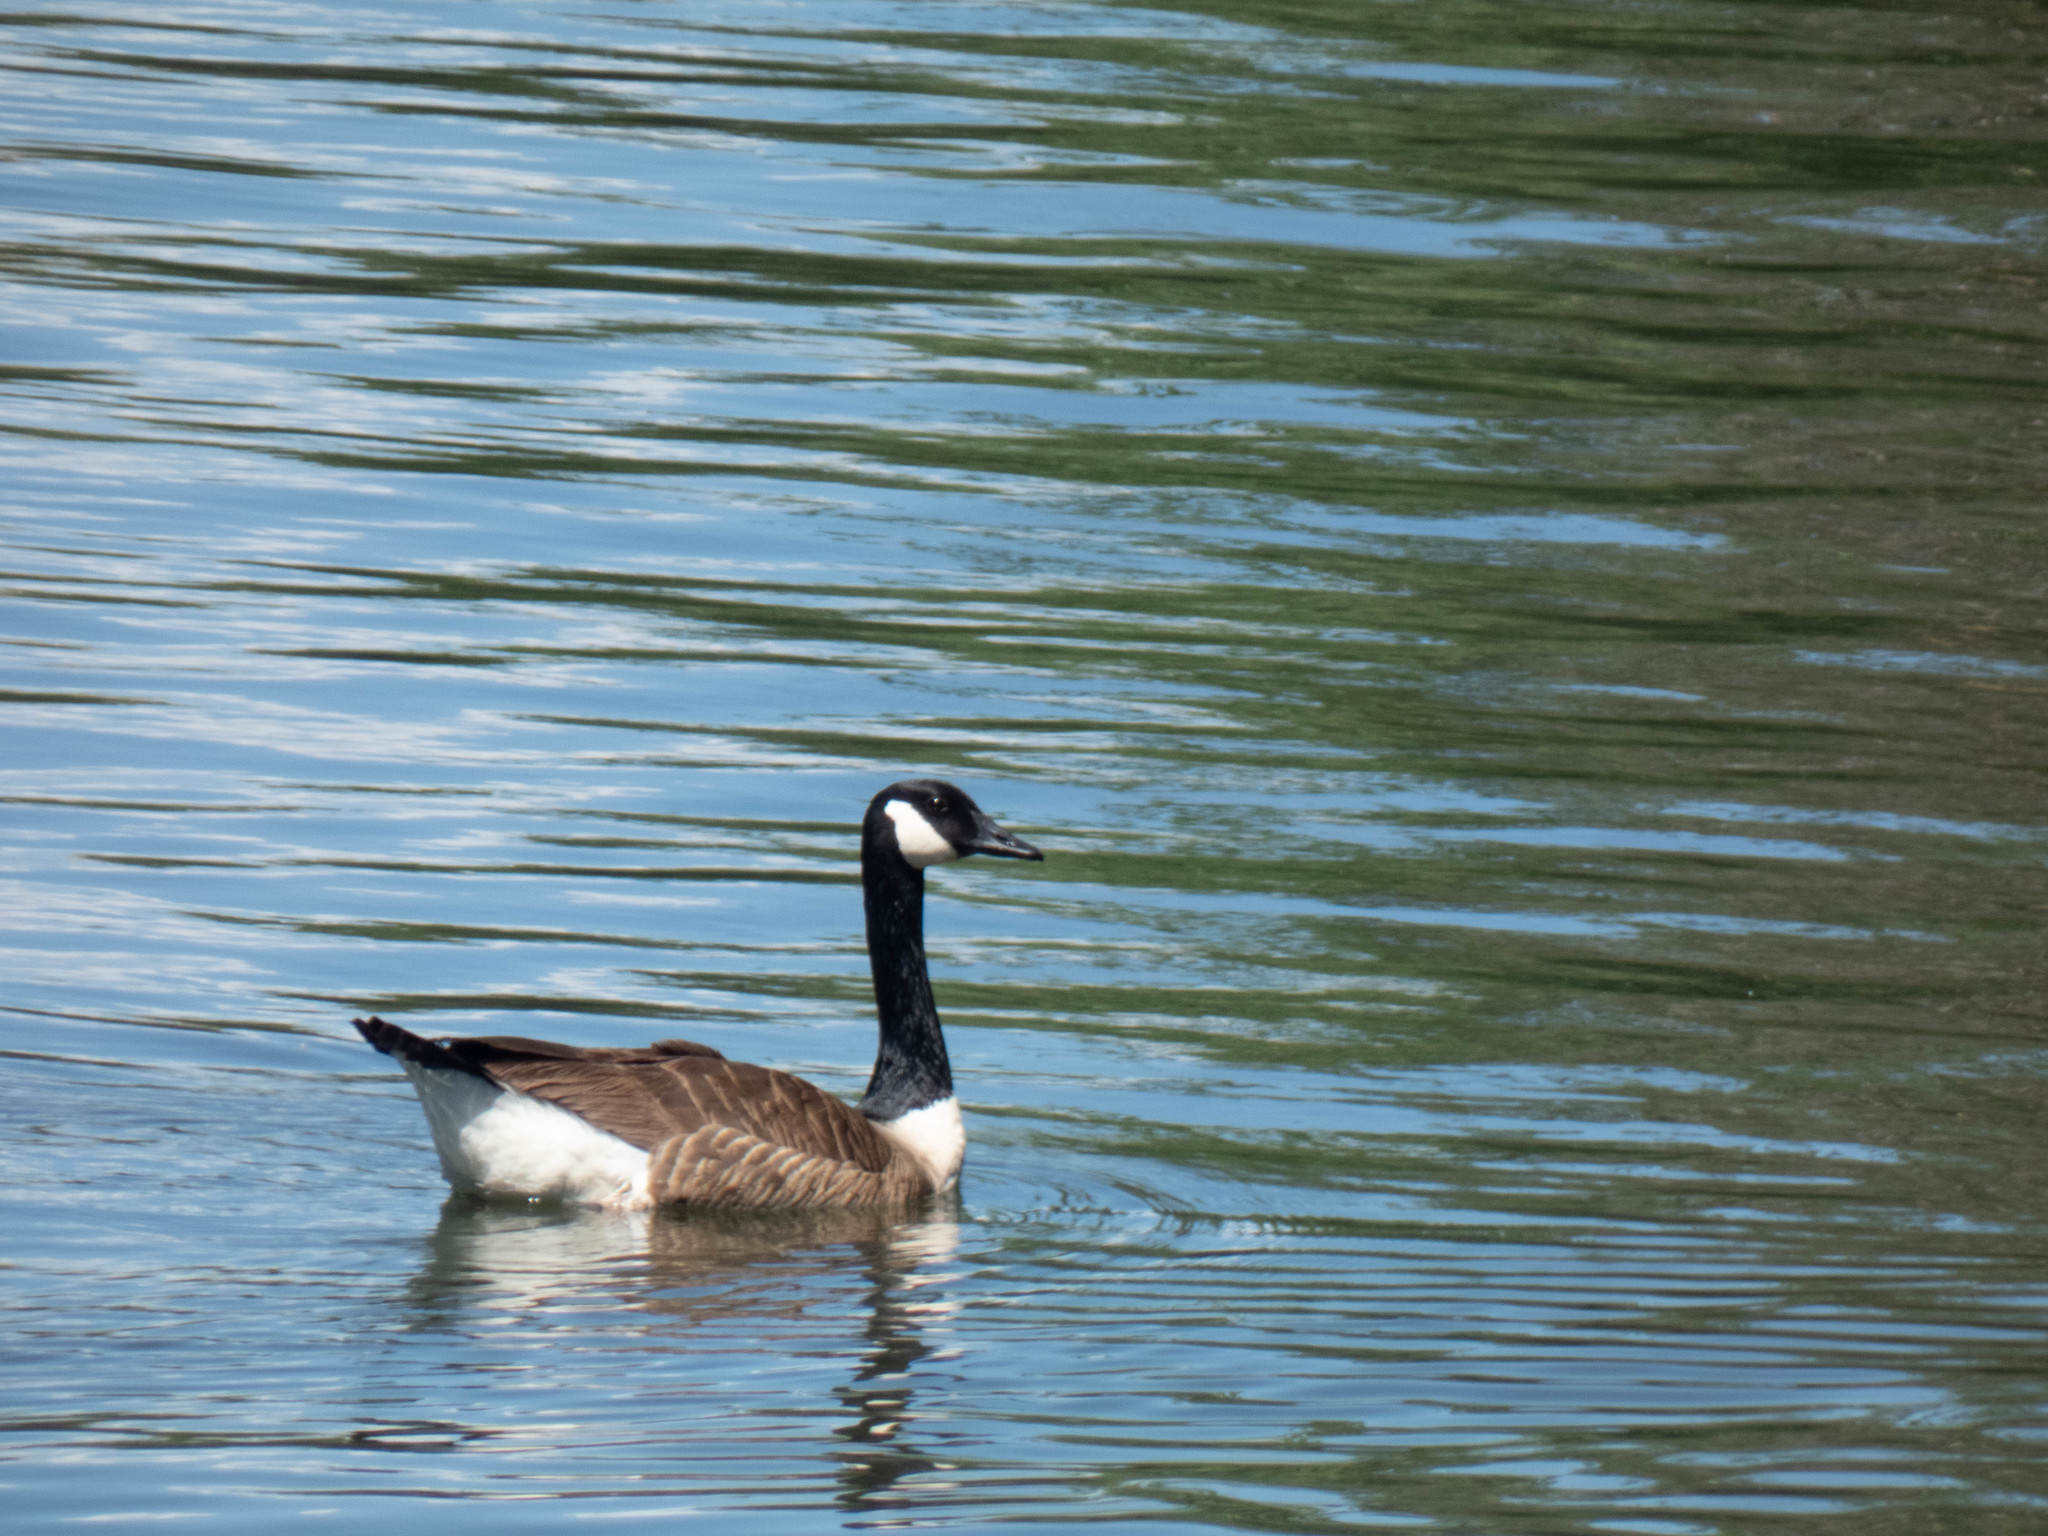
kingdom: Animalia
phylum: Chordata
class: Aves
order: Anseriformes
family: Anatidae
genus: Branta
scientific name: Branta canadensis
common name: Canada goose
